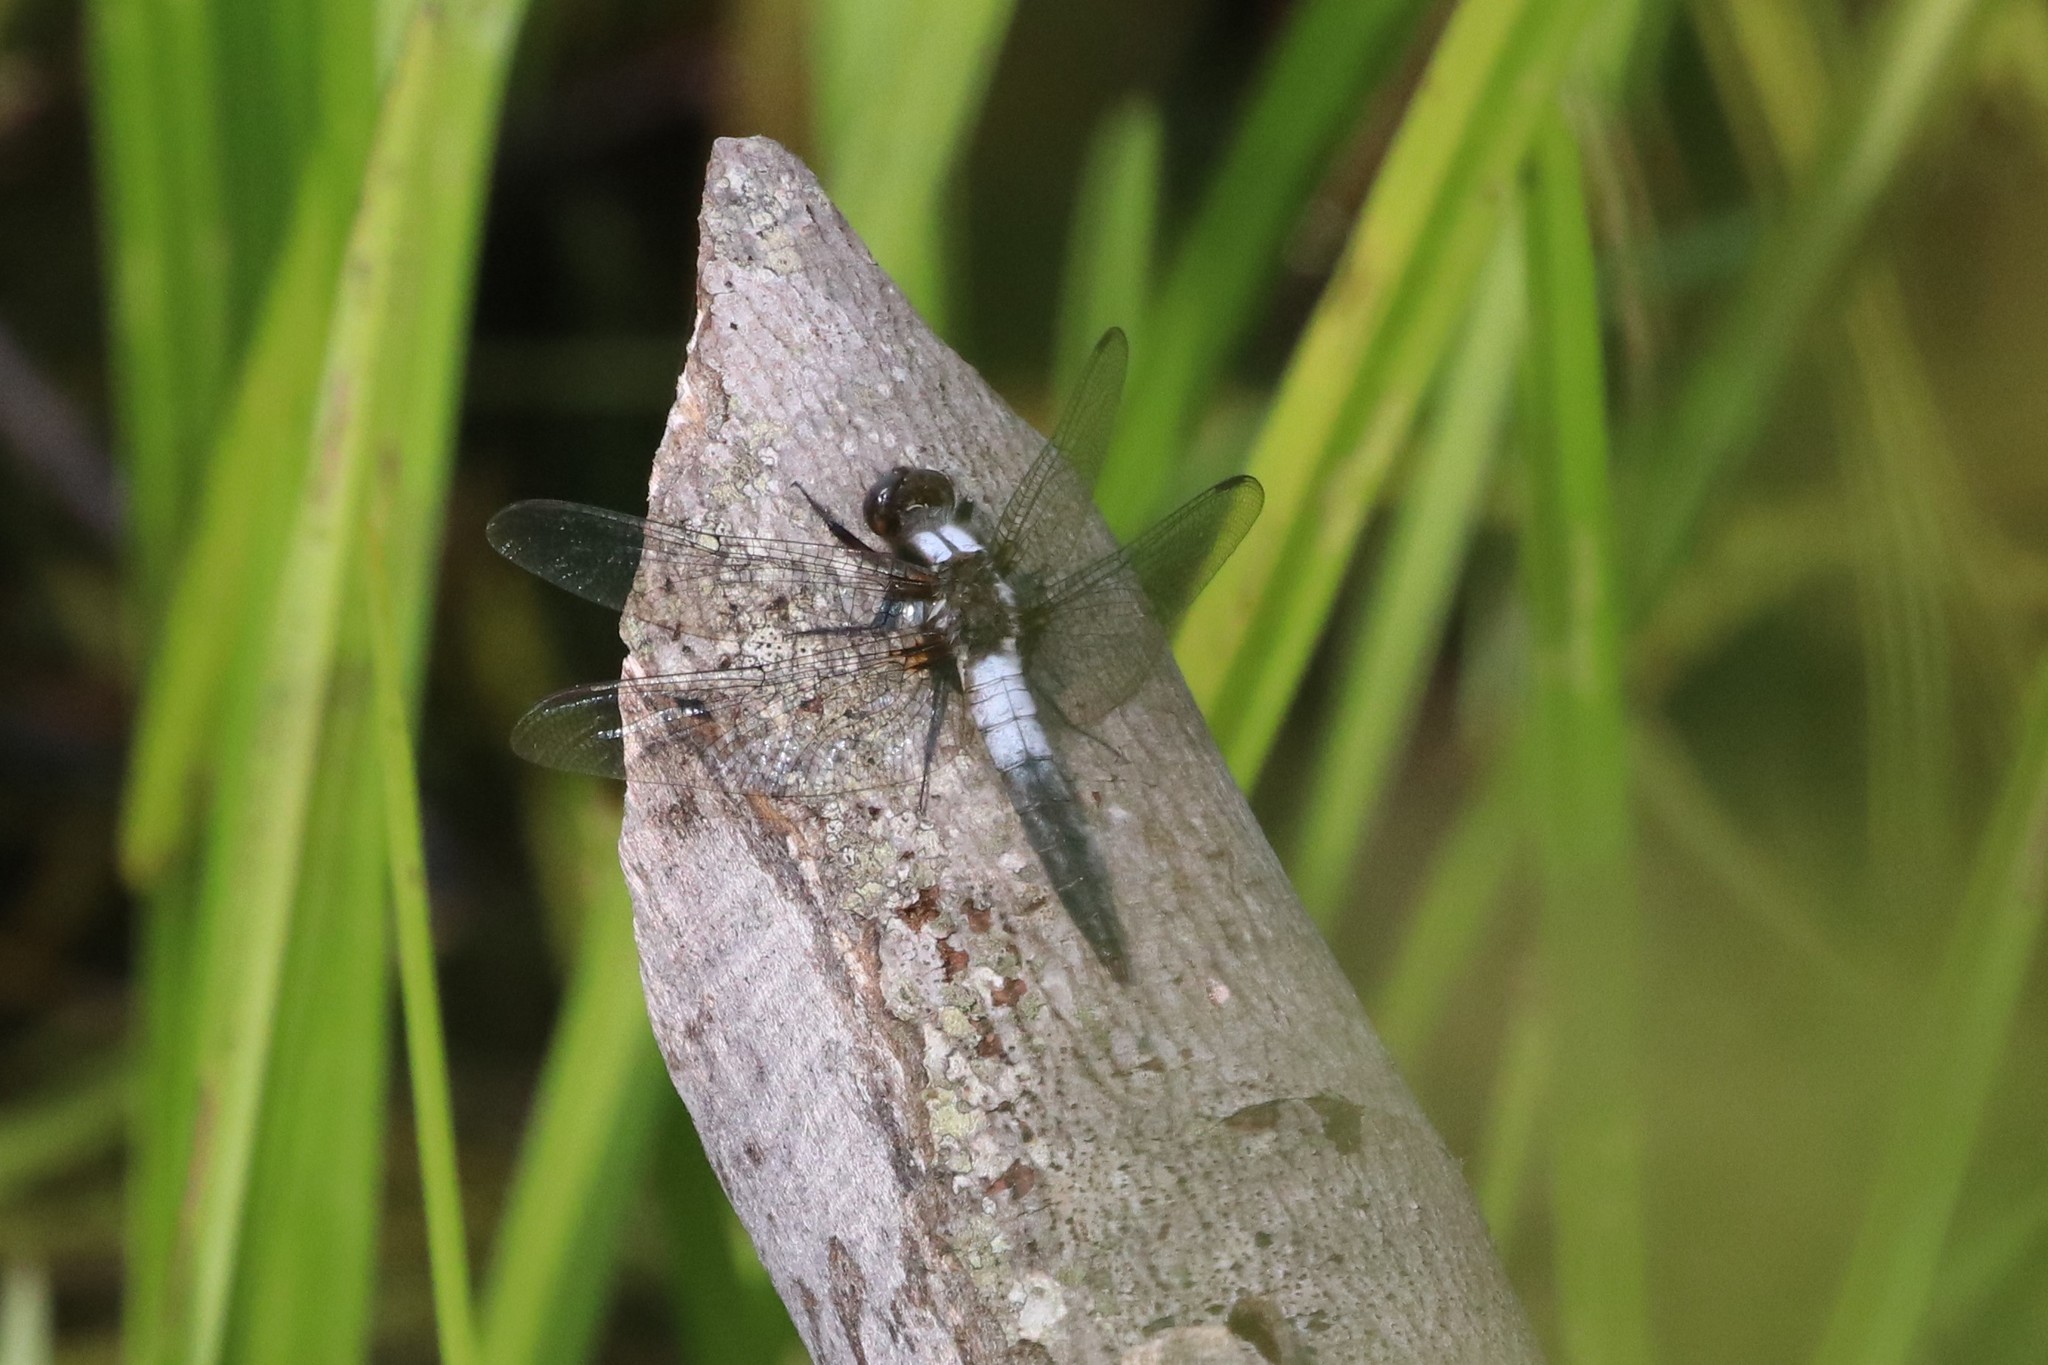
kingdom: Animalia
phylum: Arthropoda
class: Insecta
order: Odonata
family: Libellulidae
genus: Ladona
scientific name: Ladona julia
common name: Chalk-fronted corporal
